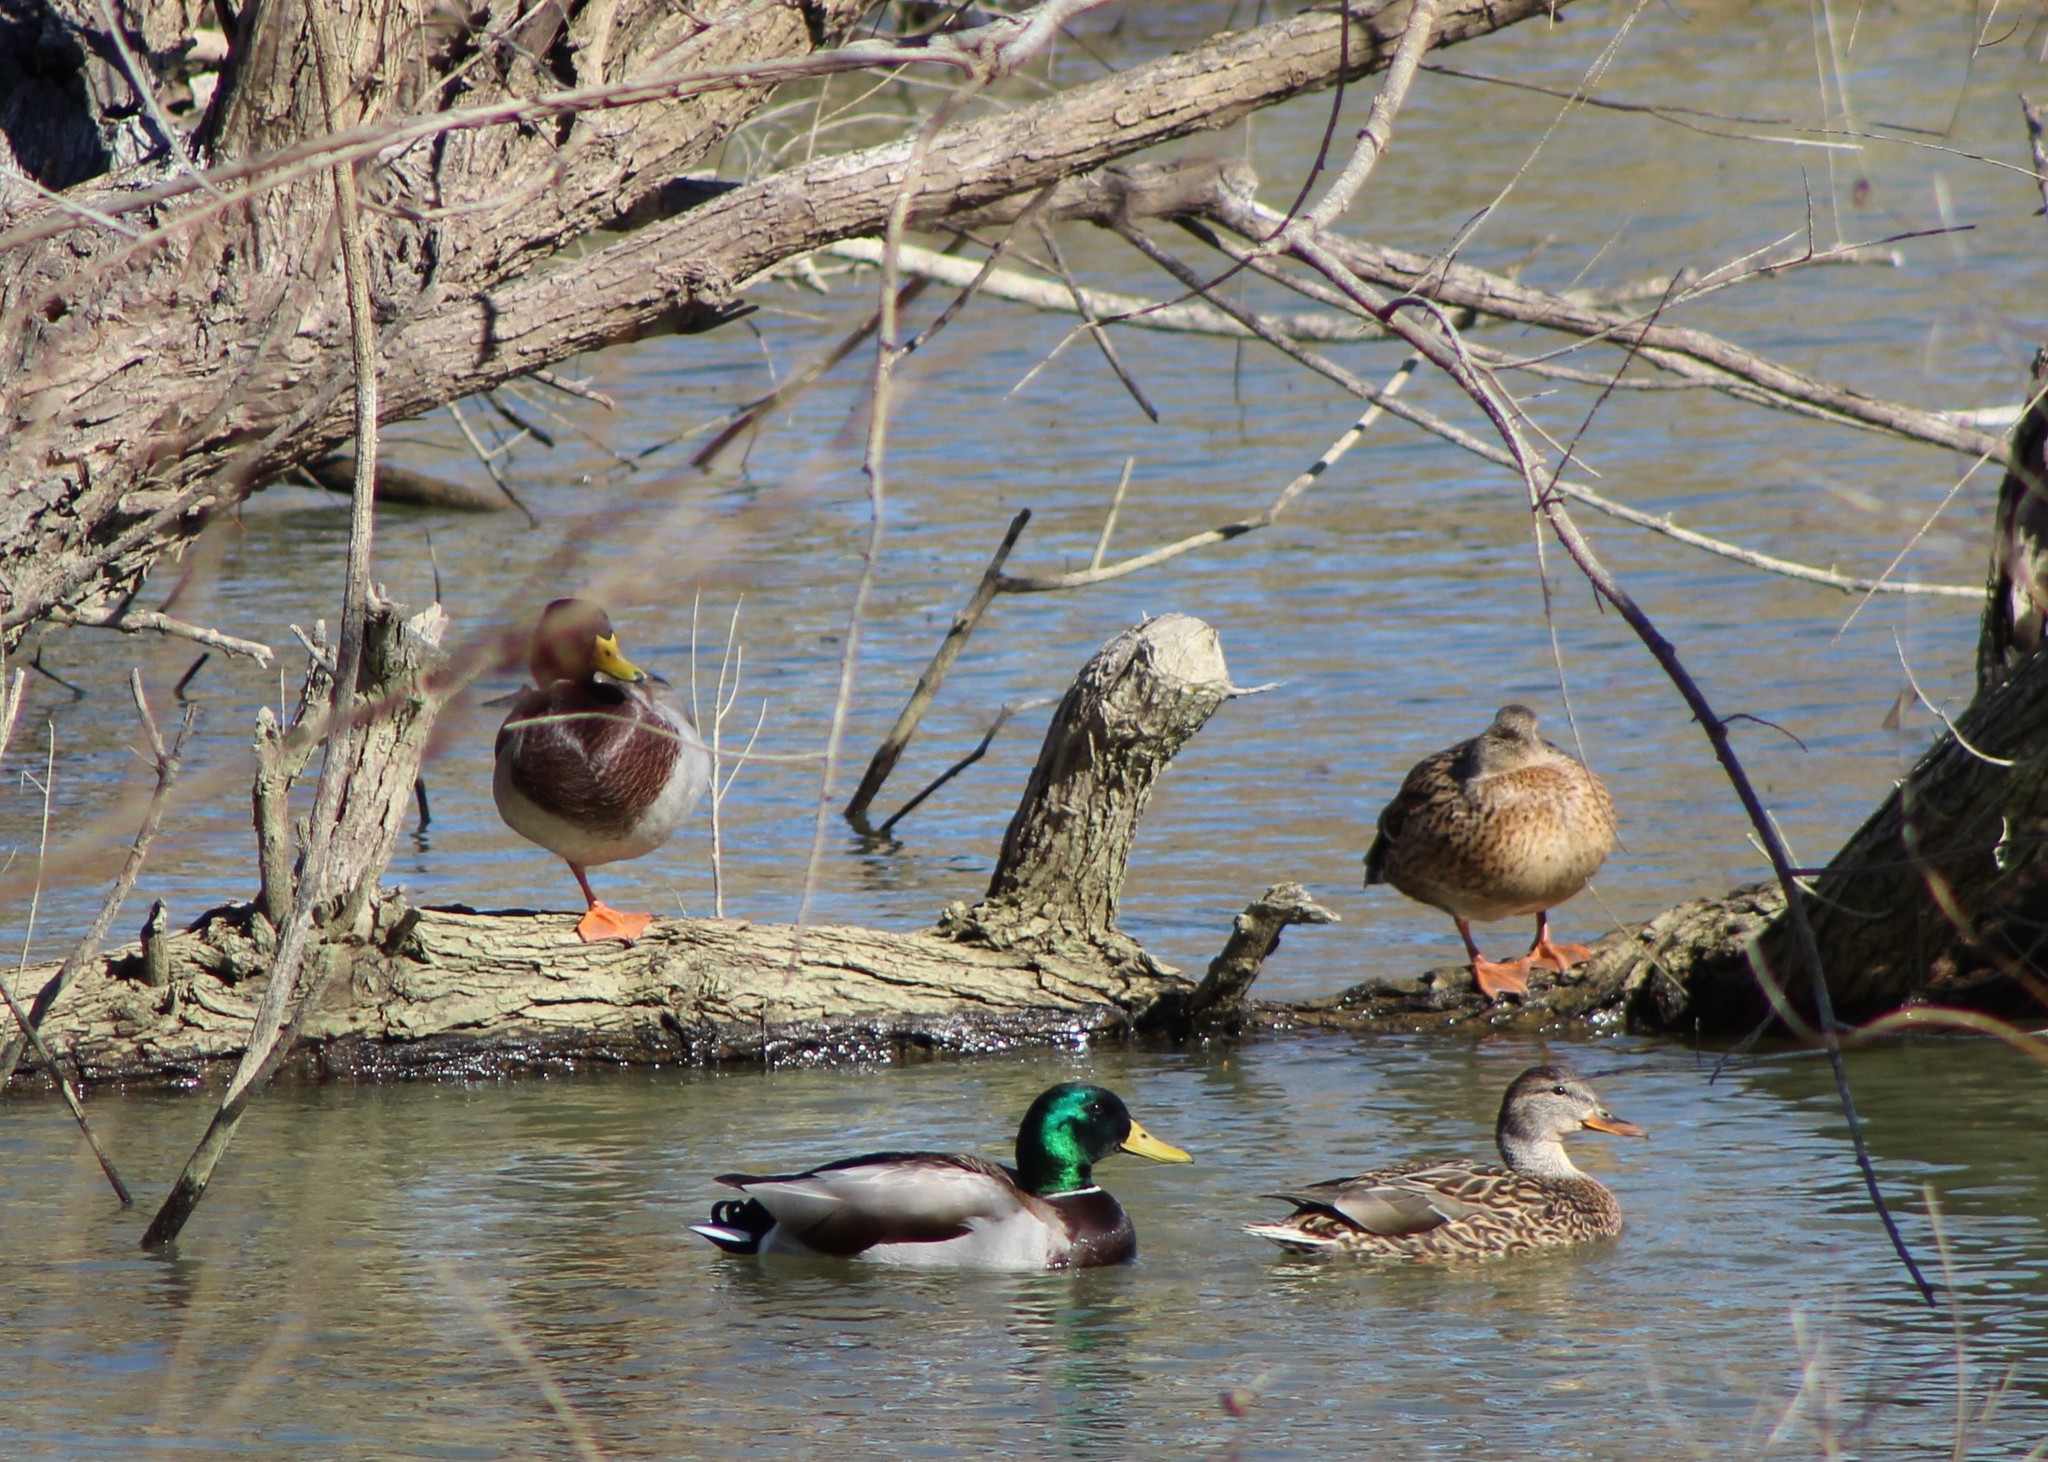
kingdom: Animalia
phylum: Chordata
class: Aves
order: Anseriformes
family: Anatidae
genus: Anas
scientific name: Anas platyrhynchos
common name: Mallard
